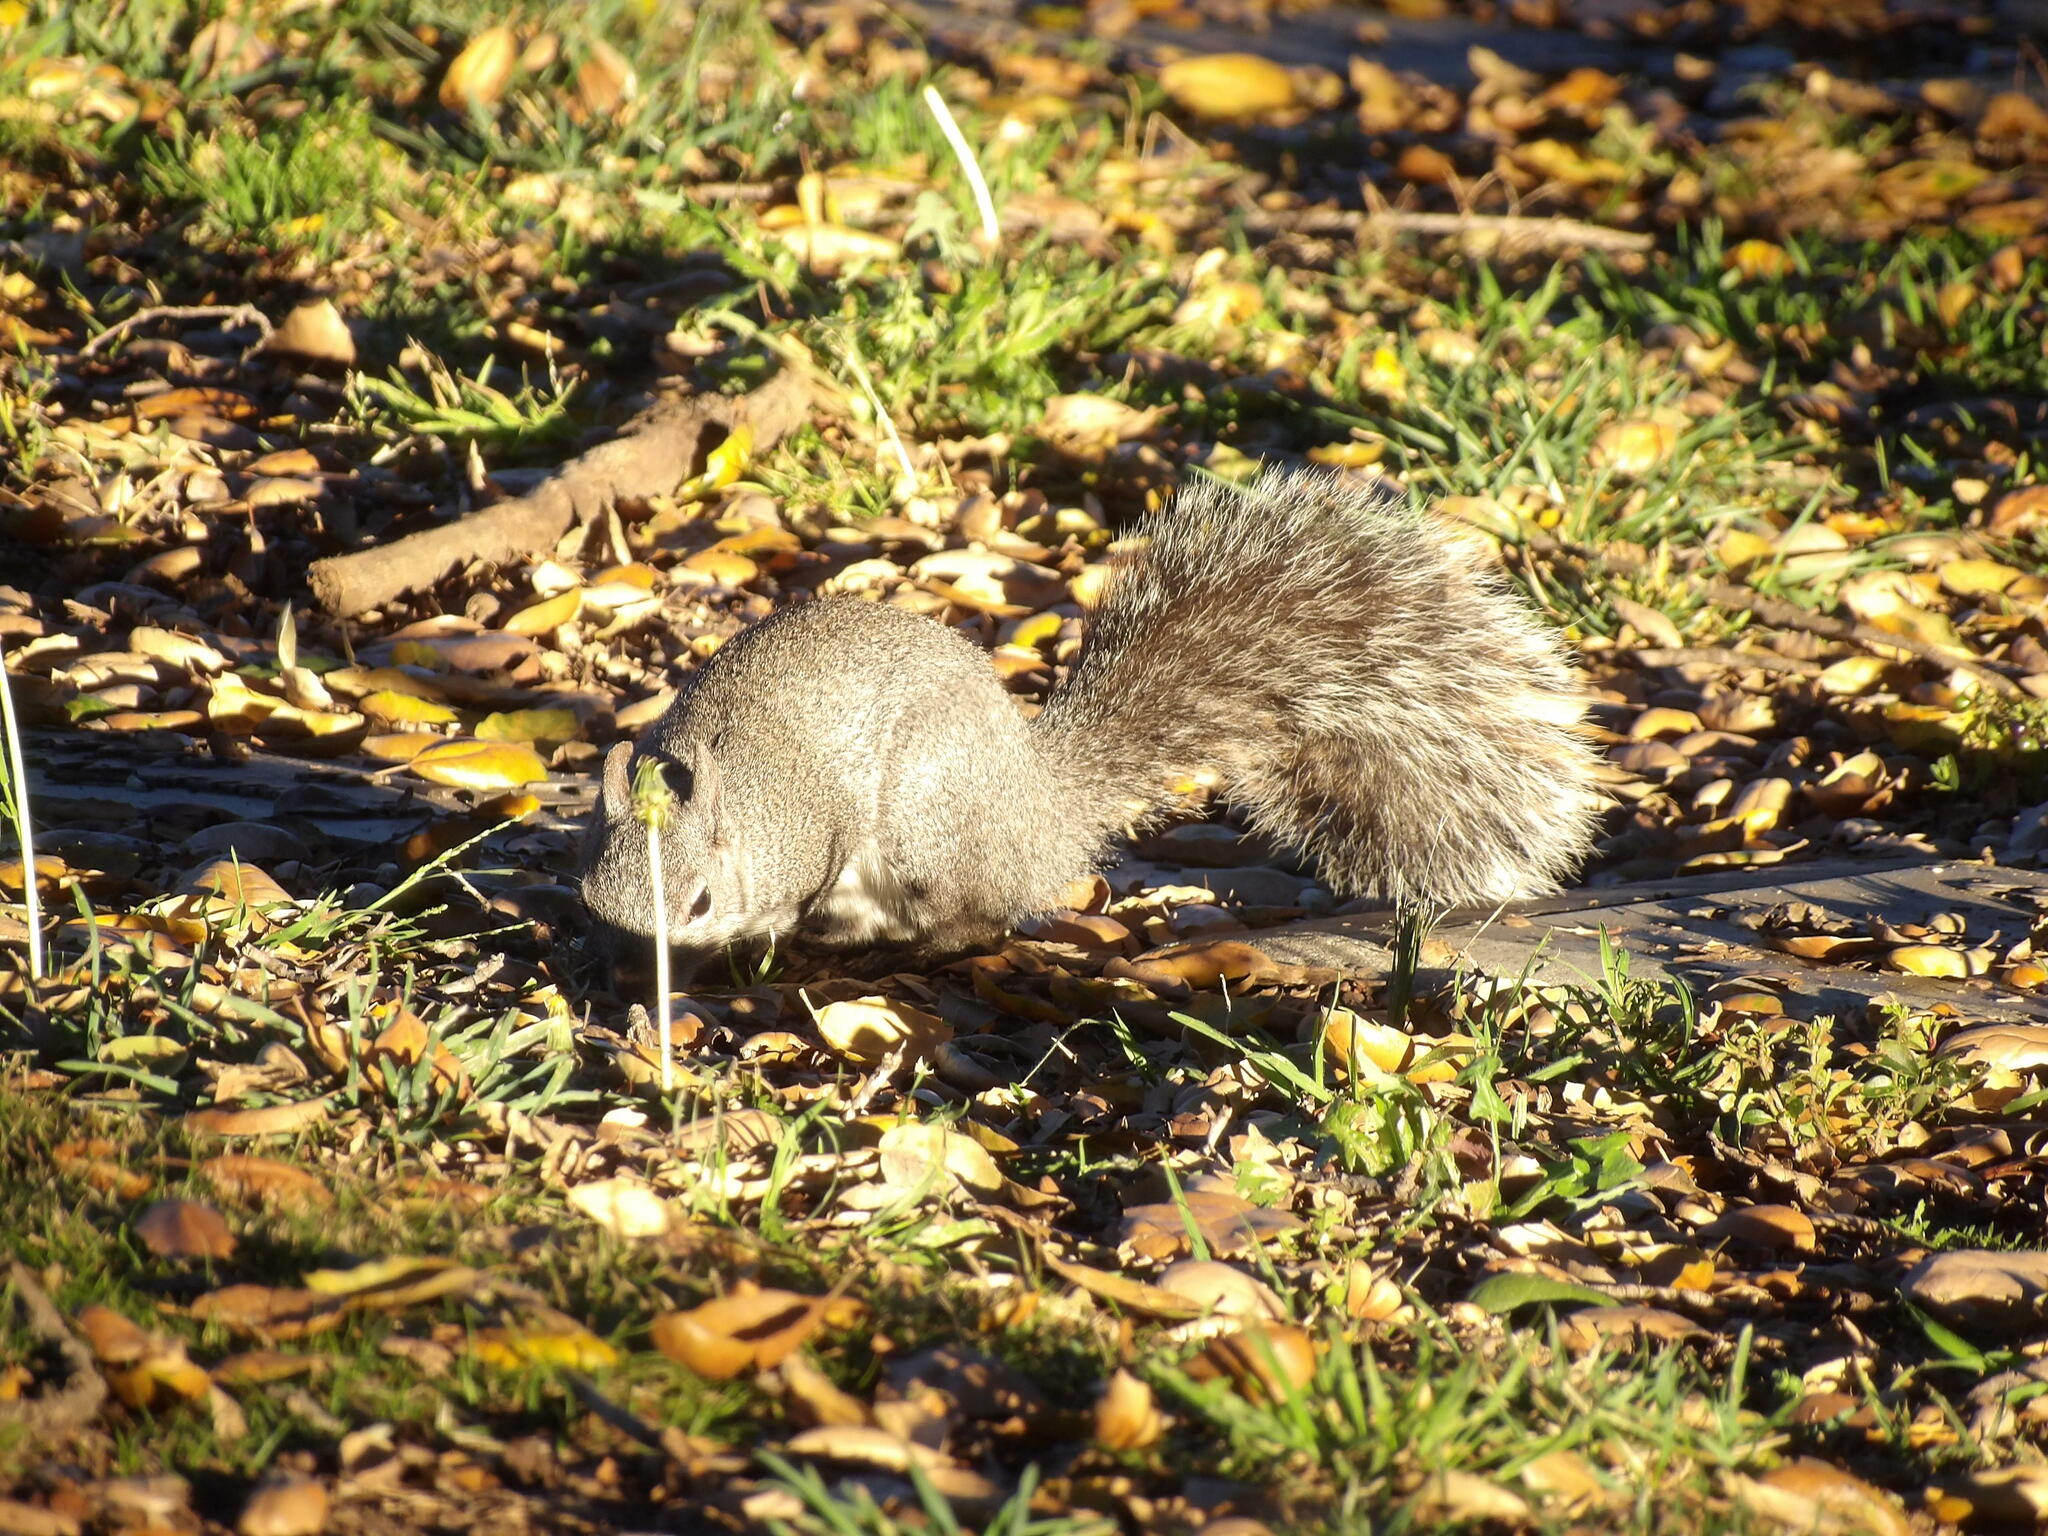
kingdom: Animalia
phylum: Chordata
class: Mammalia
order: Rodentia
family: Sciuridae
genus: Sciurus
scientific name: Sciurus griseus
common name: Western gray squirrel
